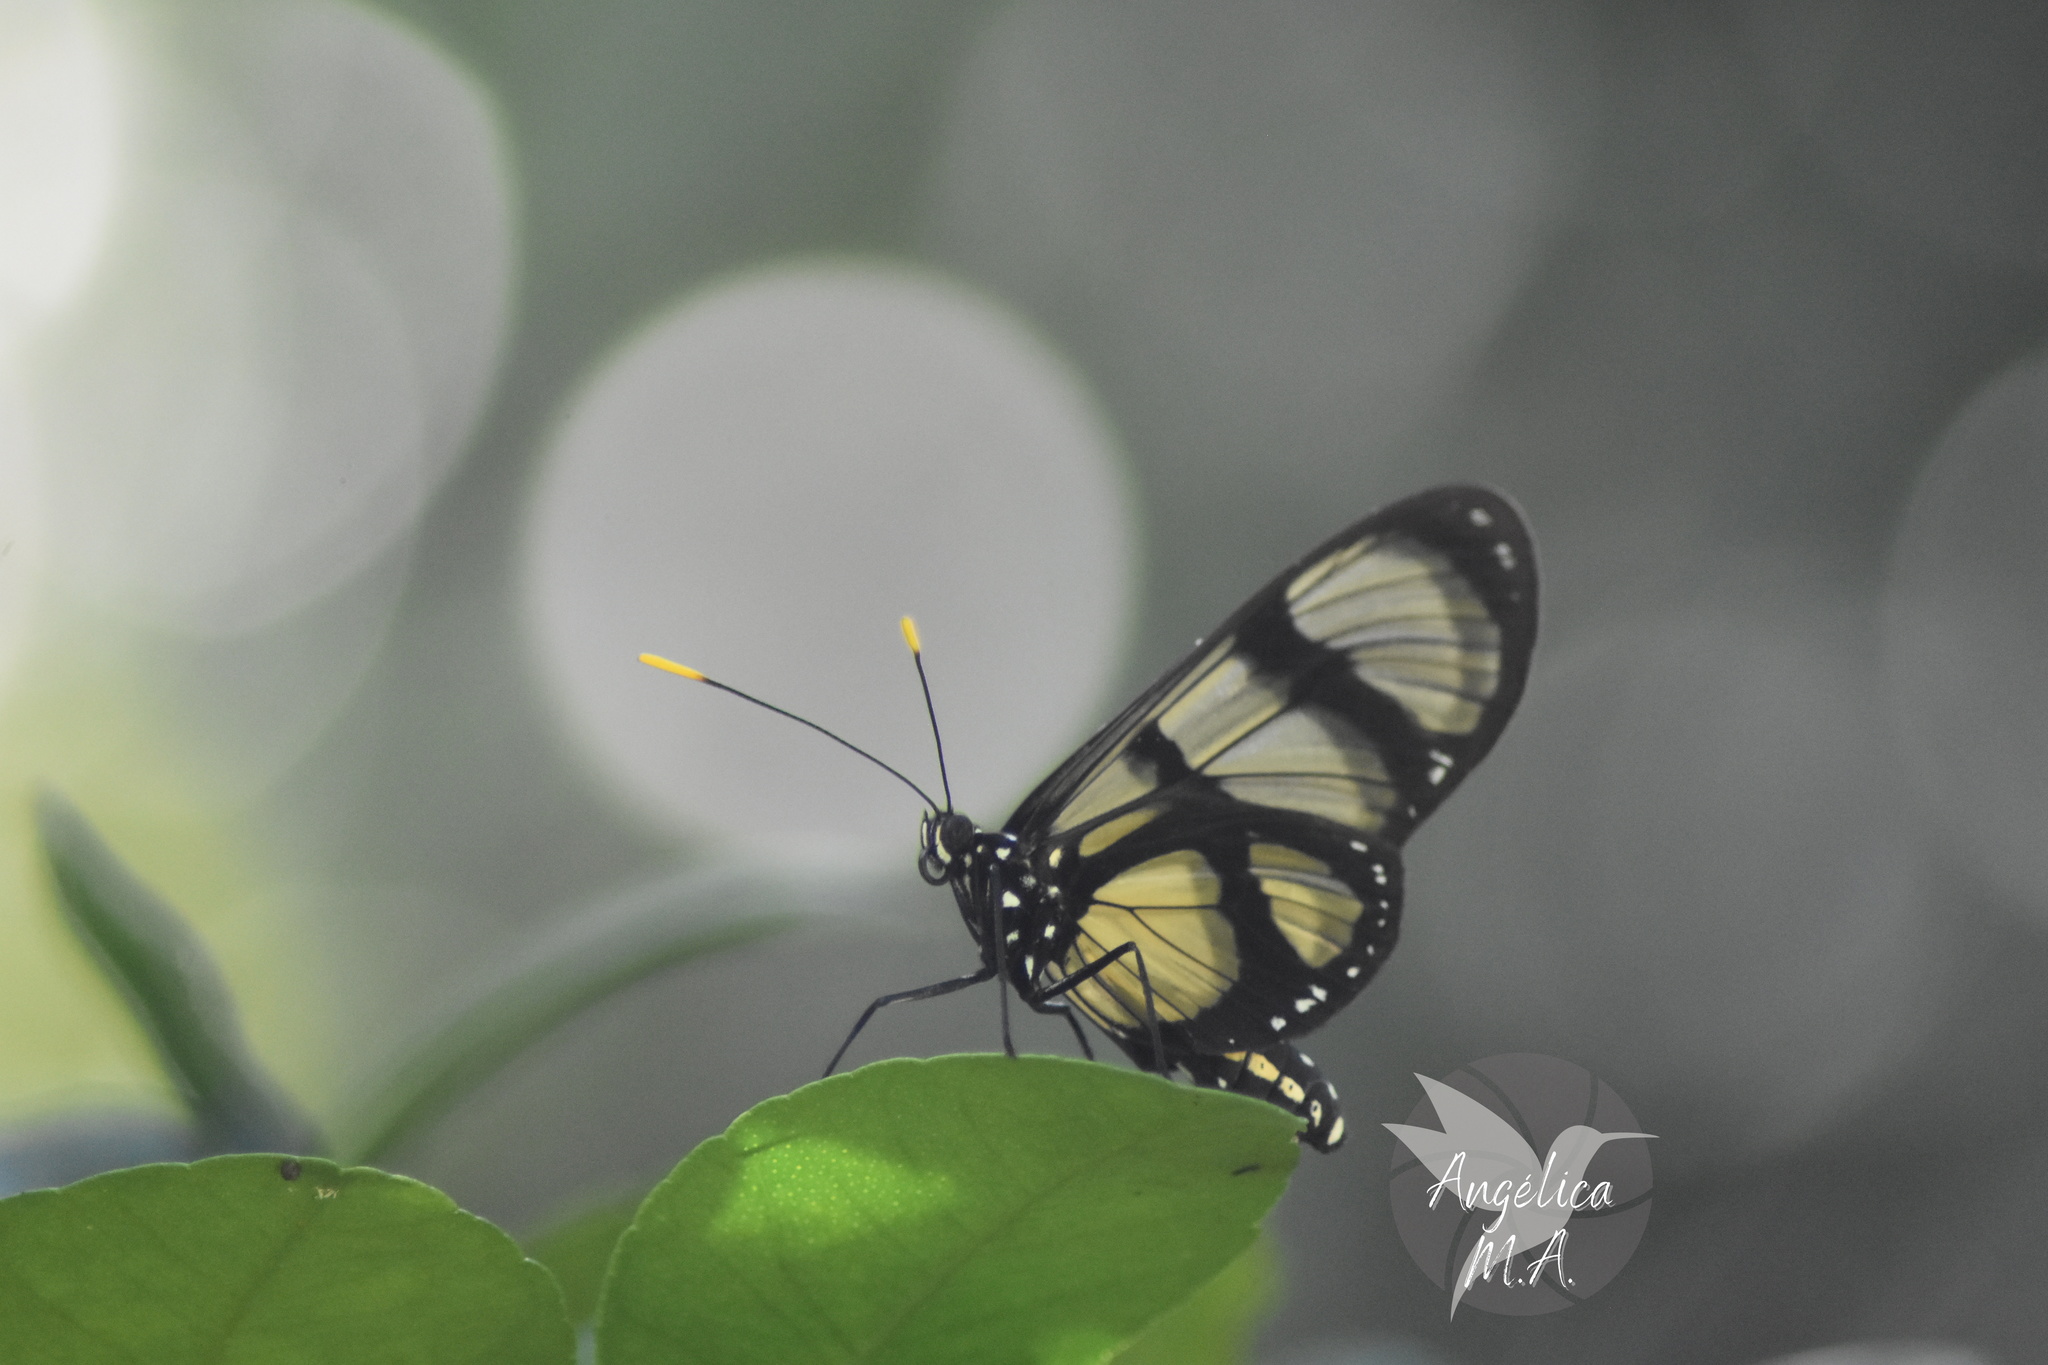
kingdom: Animalia
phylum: Arthropoda
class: Insecta
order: Lepidoptera
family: Nymphalidae
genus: Methona
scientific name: Methona confusa
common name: Confusa tigerwing
